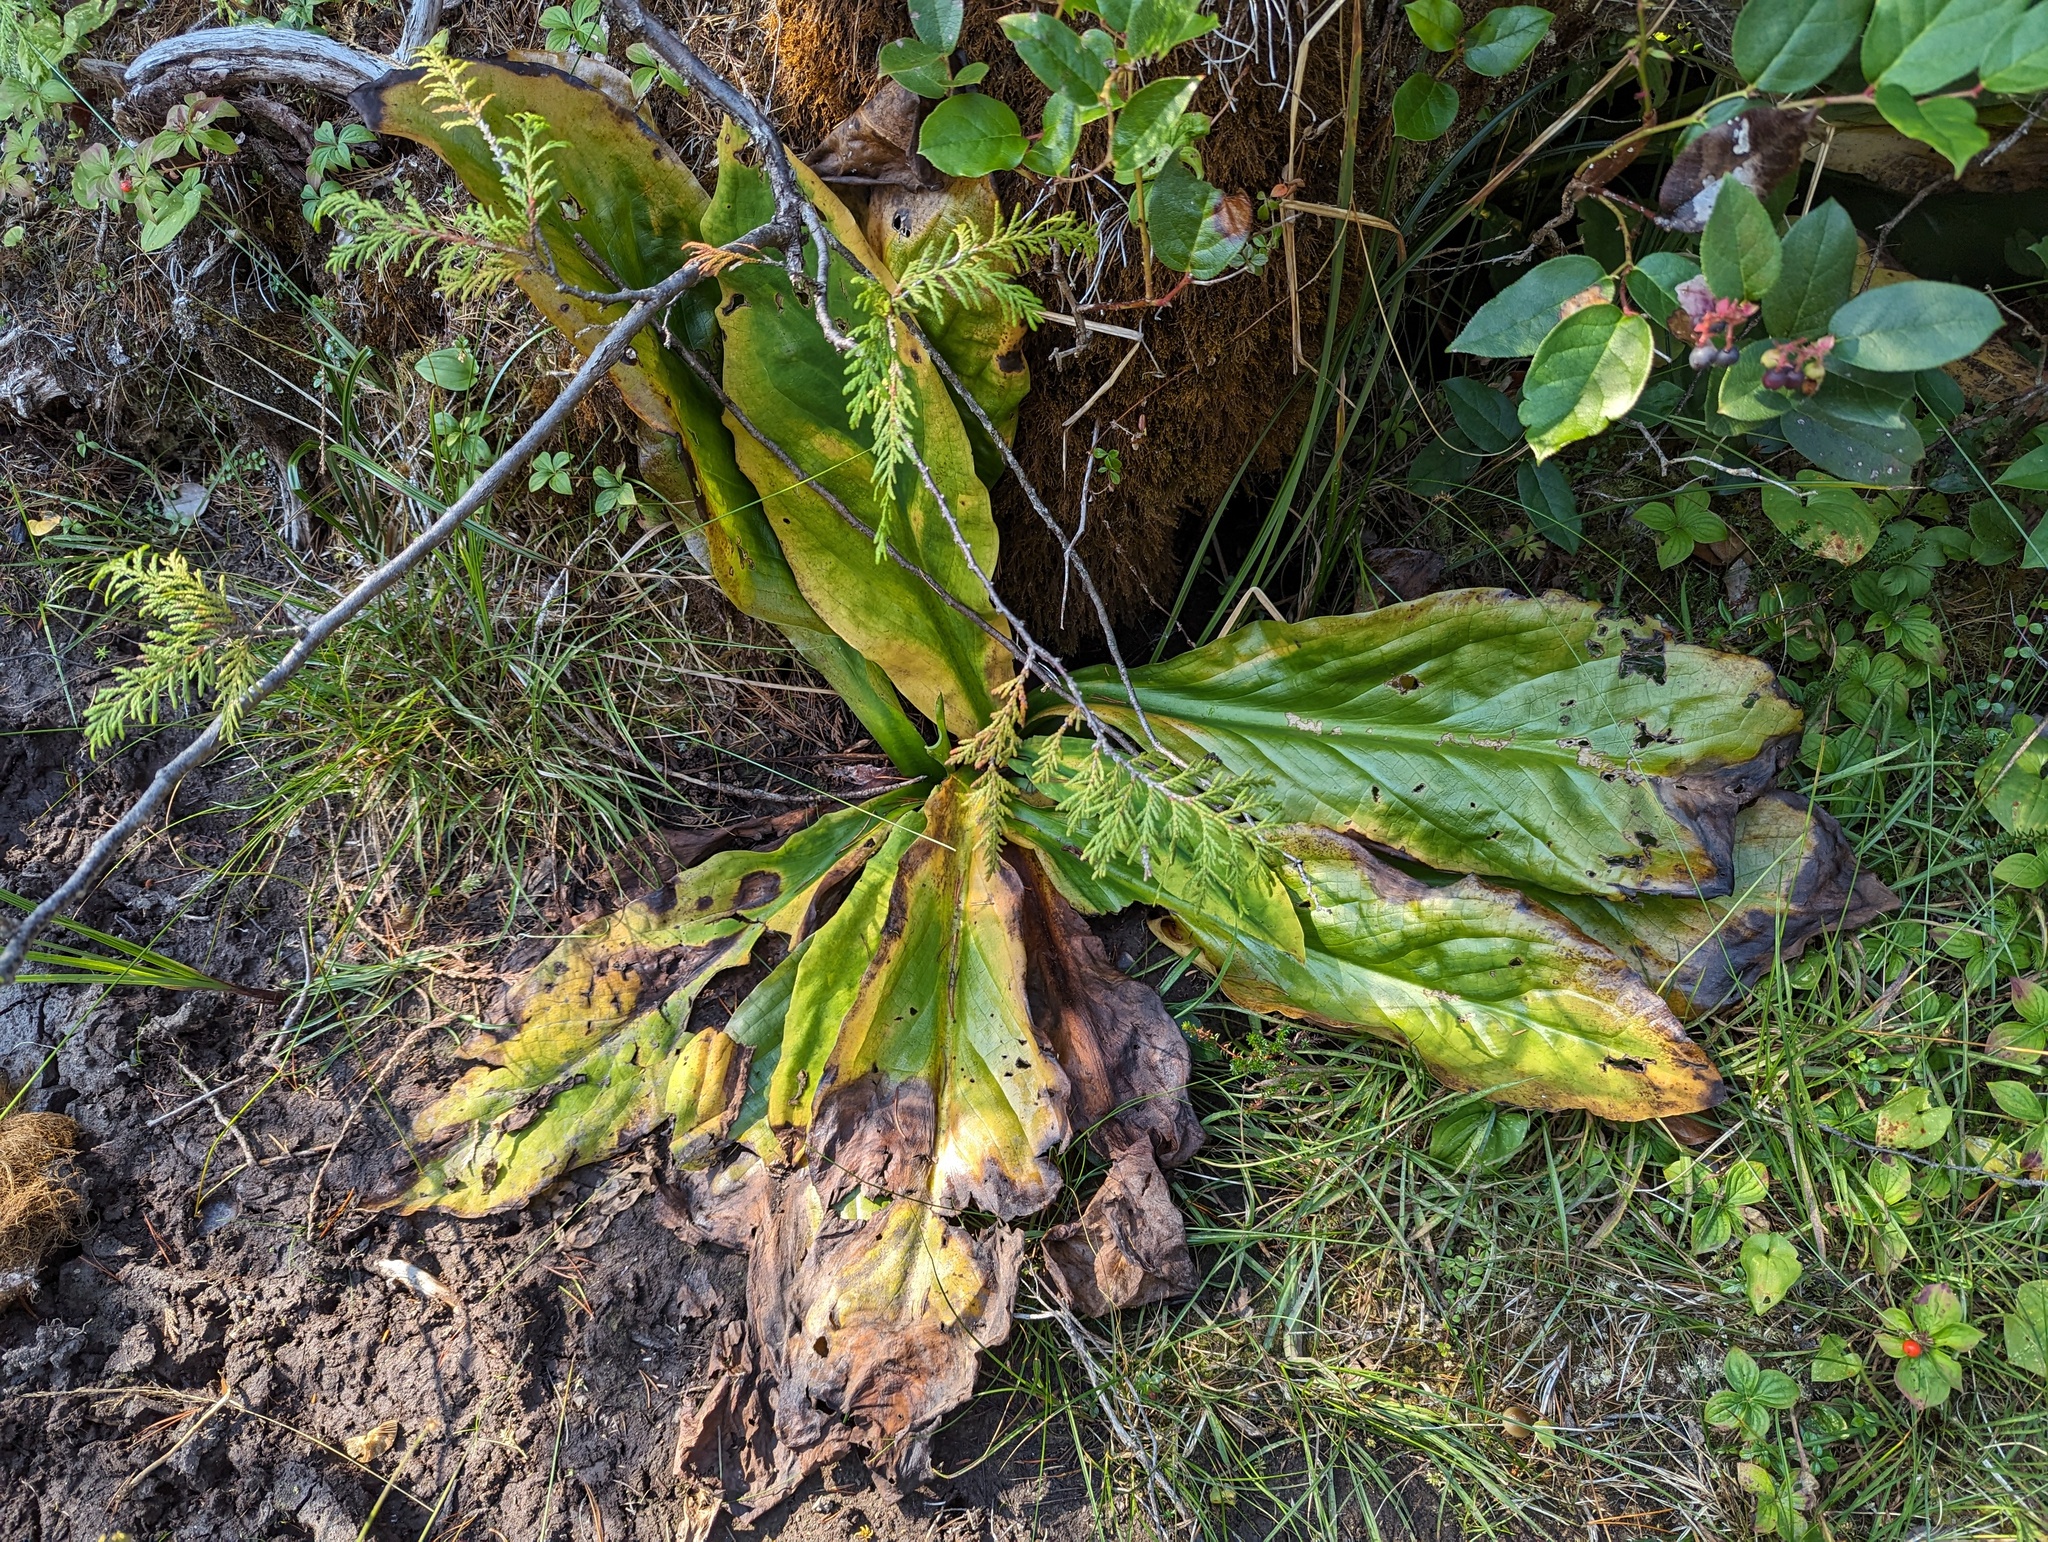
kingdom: Plantae
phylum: Tracheophyta
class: Liliopsida
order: Alismatales
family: Araceae
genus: Lysichiton
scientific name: Lysichiton americanus
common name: American skunk cabbage
